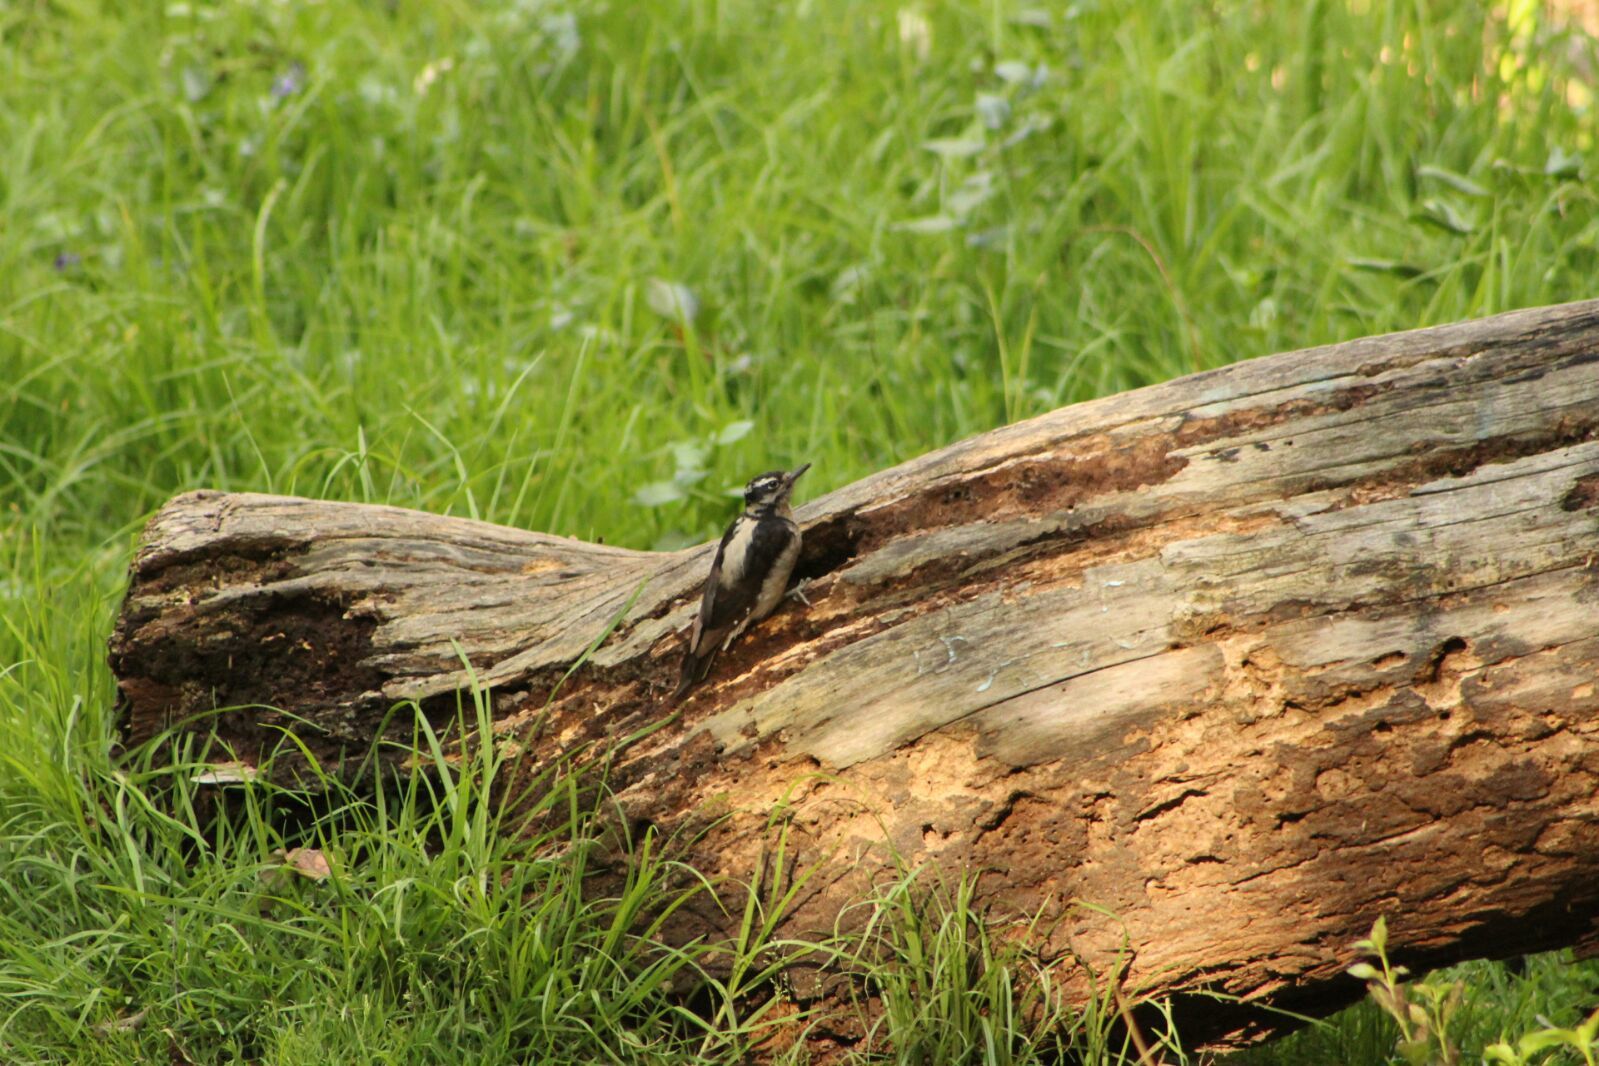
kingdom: Animalia
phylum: Chordata
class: Aves
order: Piciformes
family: Picidae
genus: Leuconotopicus
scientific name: Leuconotopicus villosus
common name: Hairy woodpecker
